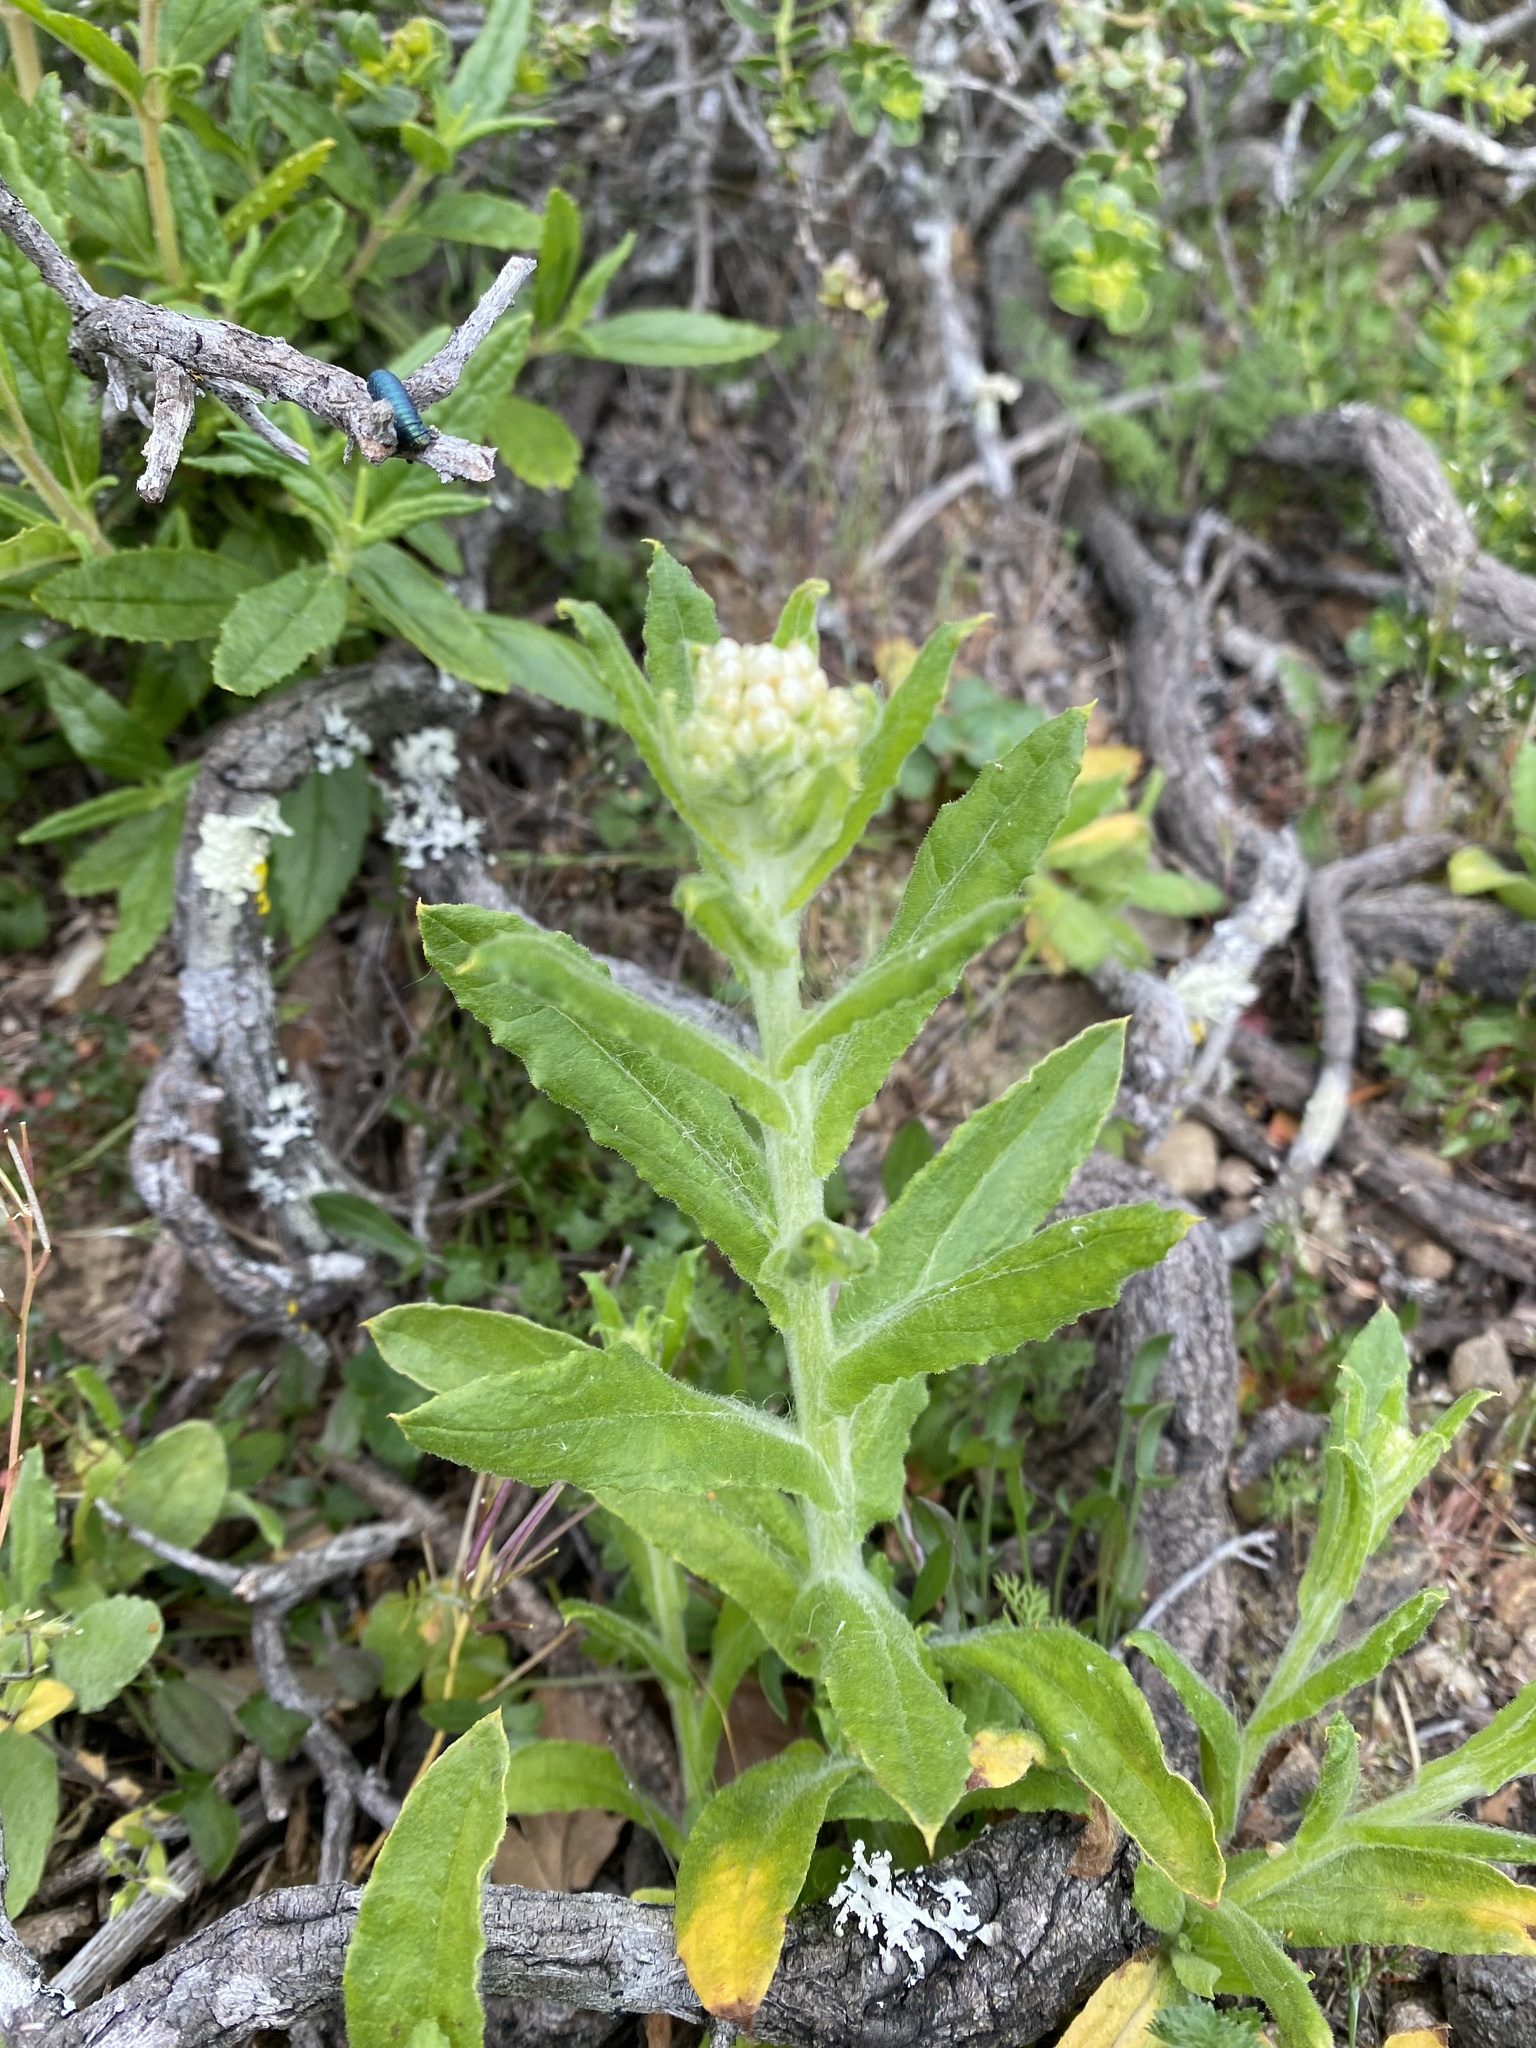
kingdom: Plantae
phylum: Tracheophyta
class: Magnoliopsida
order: Asterales
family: Asteraceae
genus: Pseudognaphalium
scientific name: Pseudognaphalium californicum
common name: California rabbit-tobacco
